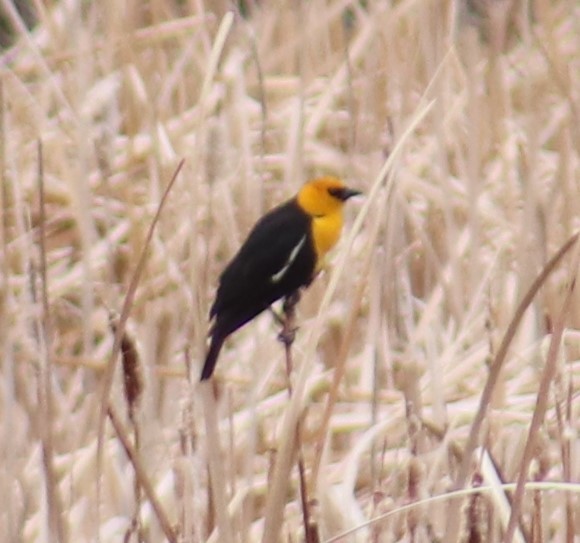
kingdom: Animalia
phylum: Chordata
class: Aves
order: Passeriformes
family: Icteridae
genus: Xanthocephalus
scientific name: Xanthocephalus xanthocephalus
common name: Yellow-headed blackbird
